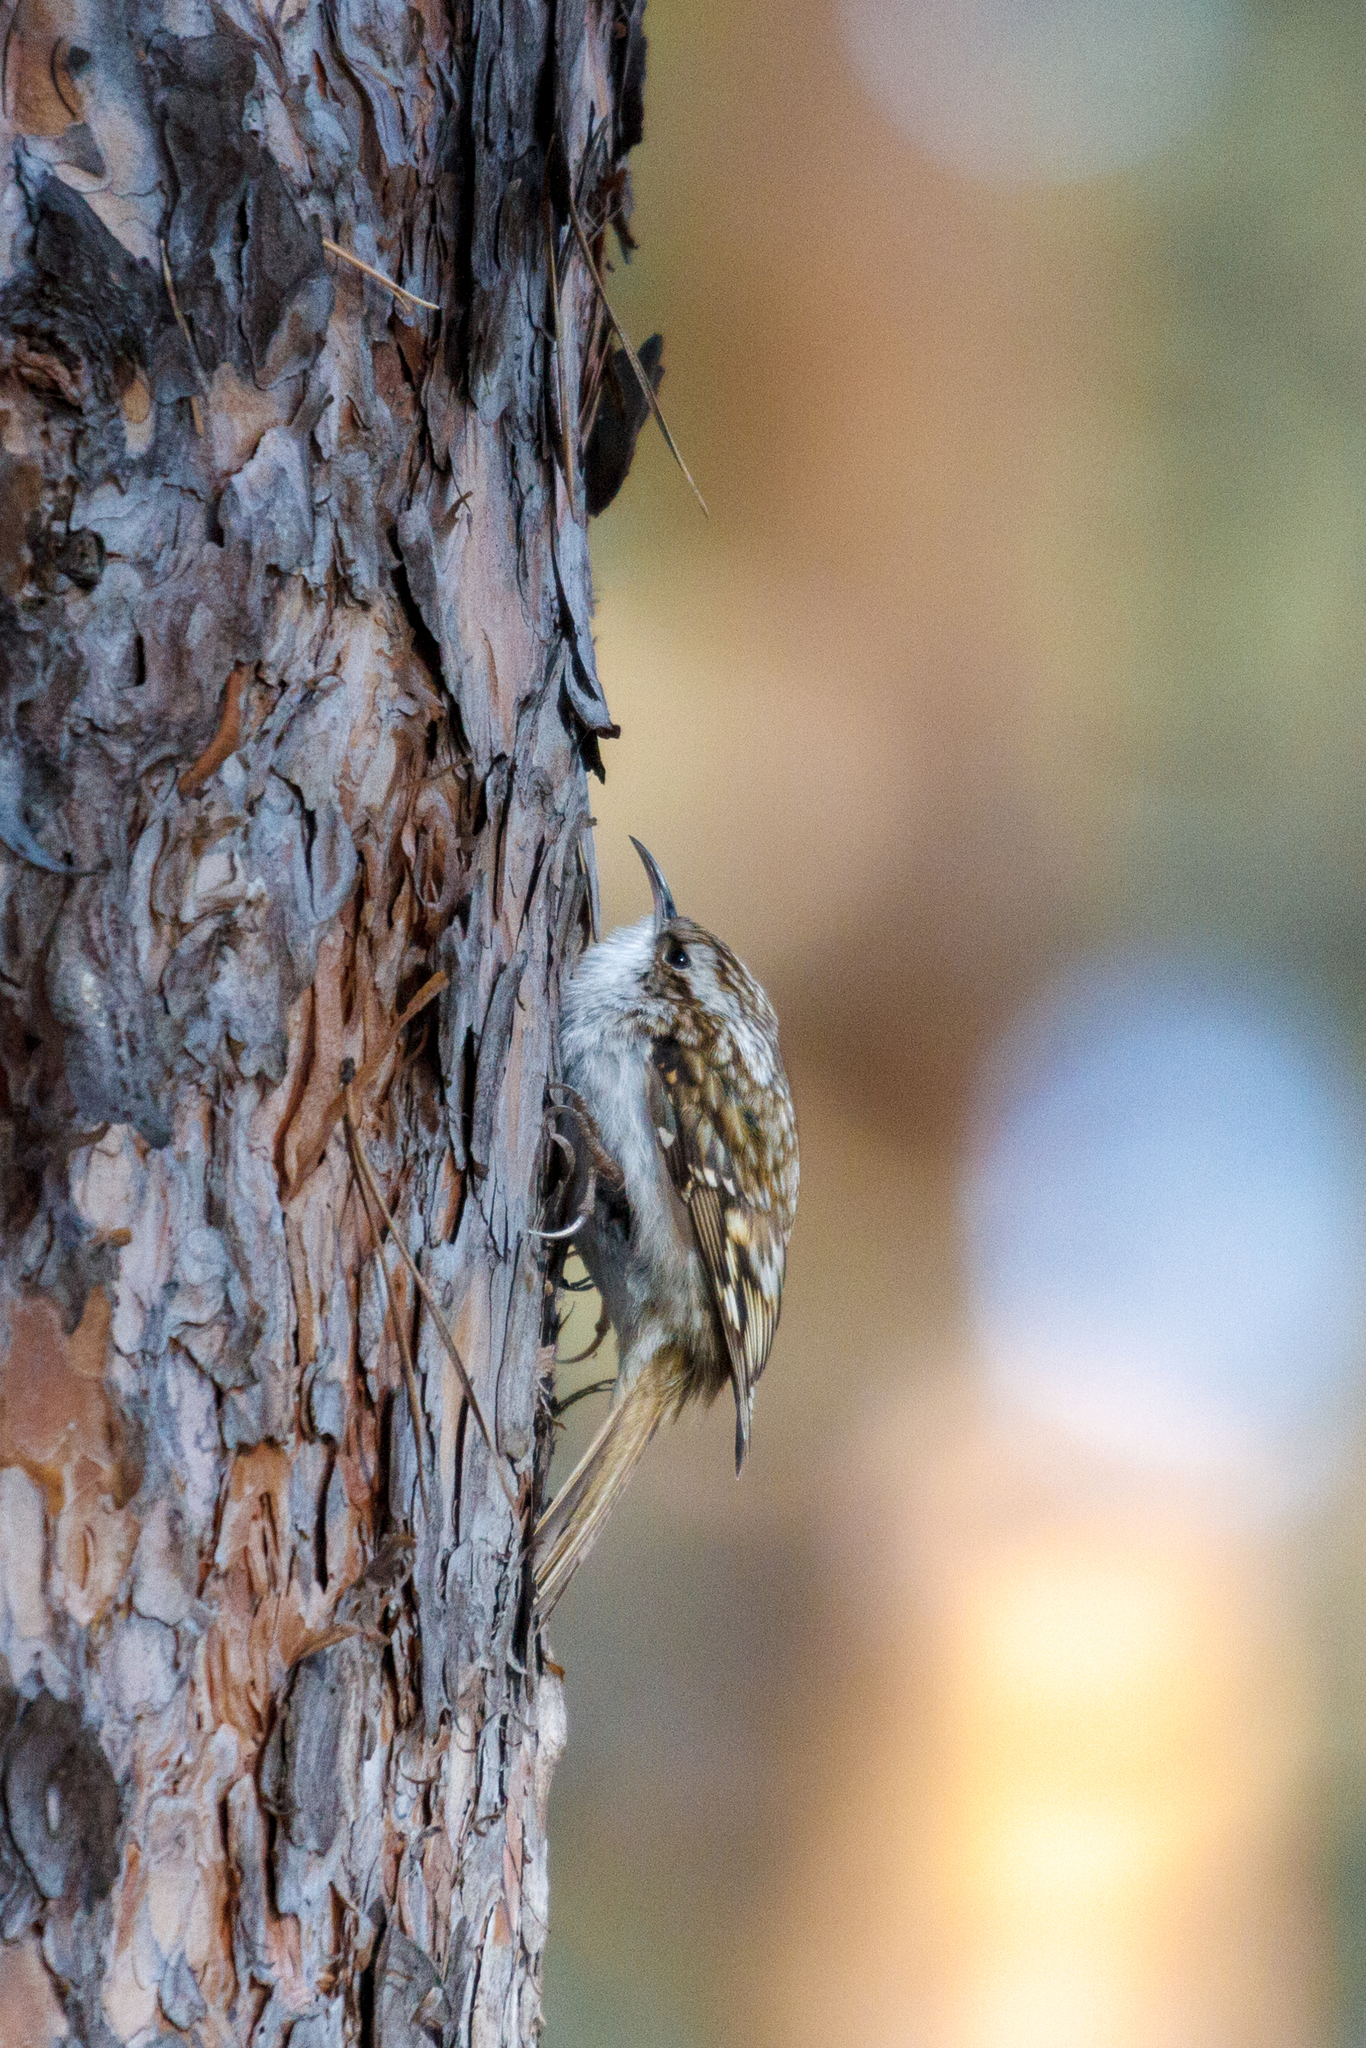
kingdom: Animalia
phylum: Chordata
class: Aves
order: Passeriformes
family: Certhiidae
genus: Certhia
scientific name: Certhia familiaris
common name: Eurasian treecreeper
